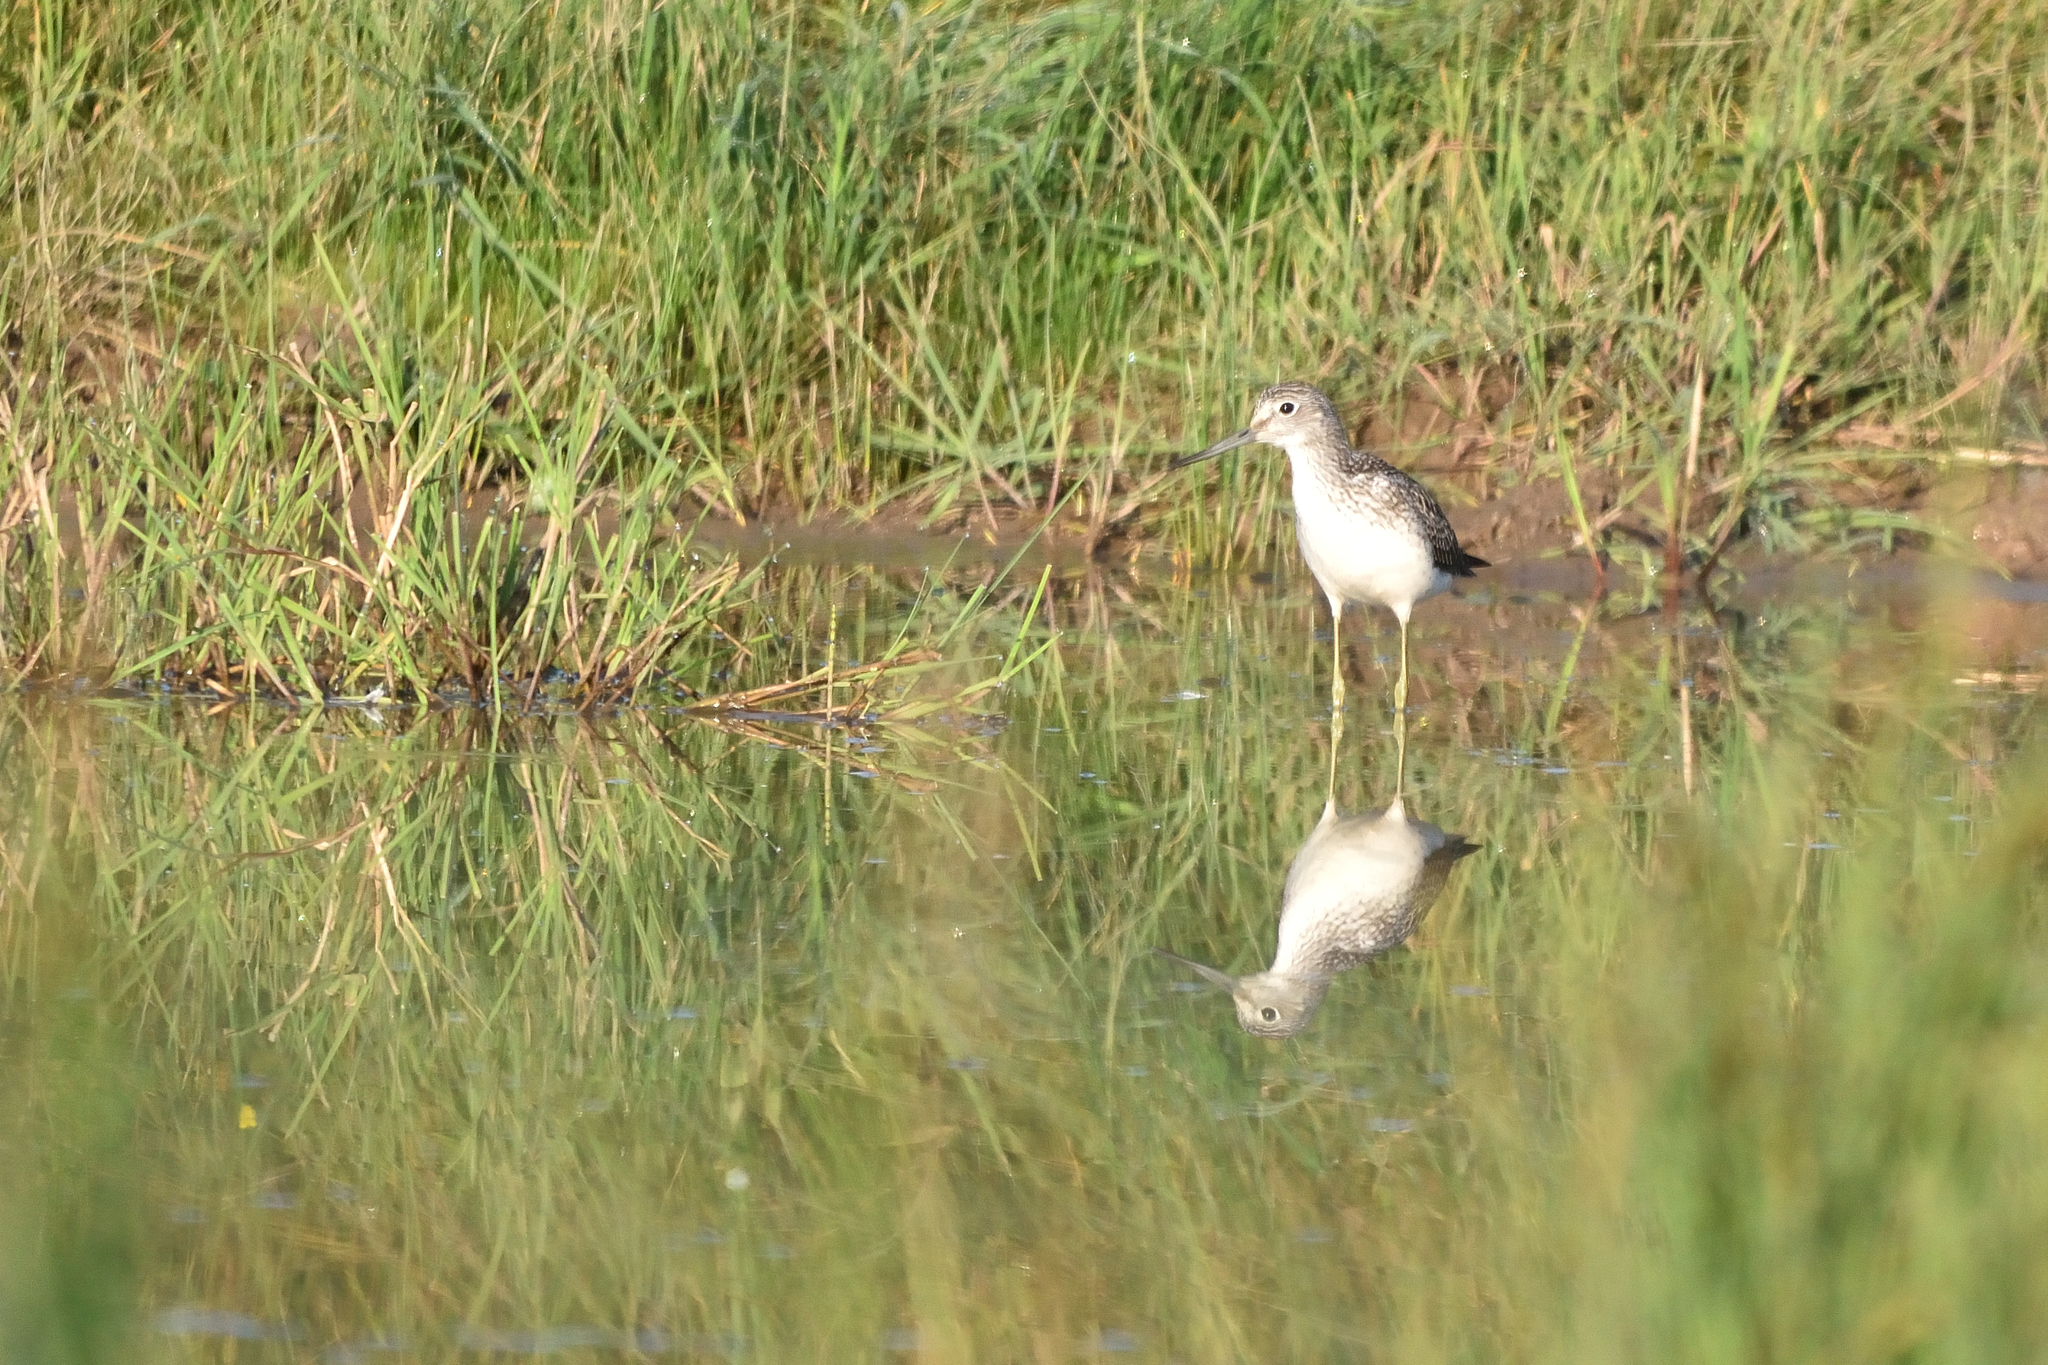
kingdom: Animalia
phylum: Chordata
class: Aves
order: Charadriiformes
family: Scolopacidae
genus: Tringa
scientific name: Tringa nebularia
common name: Common greenshank
